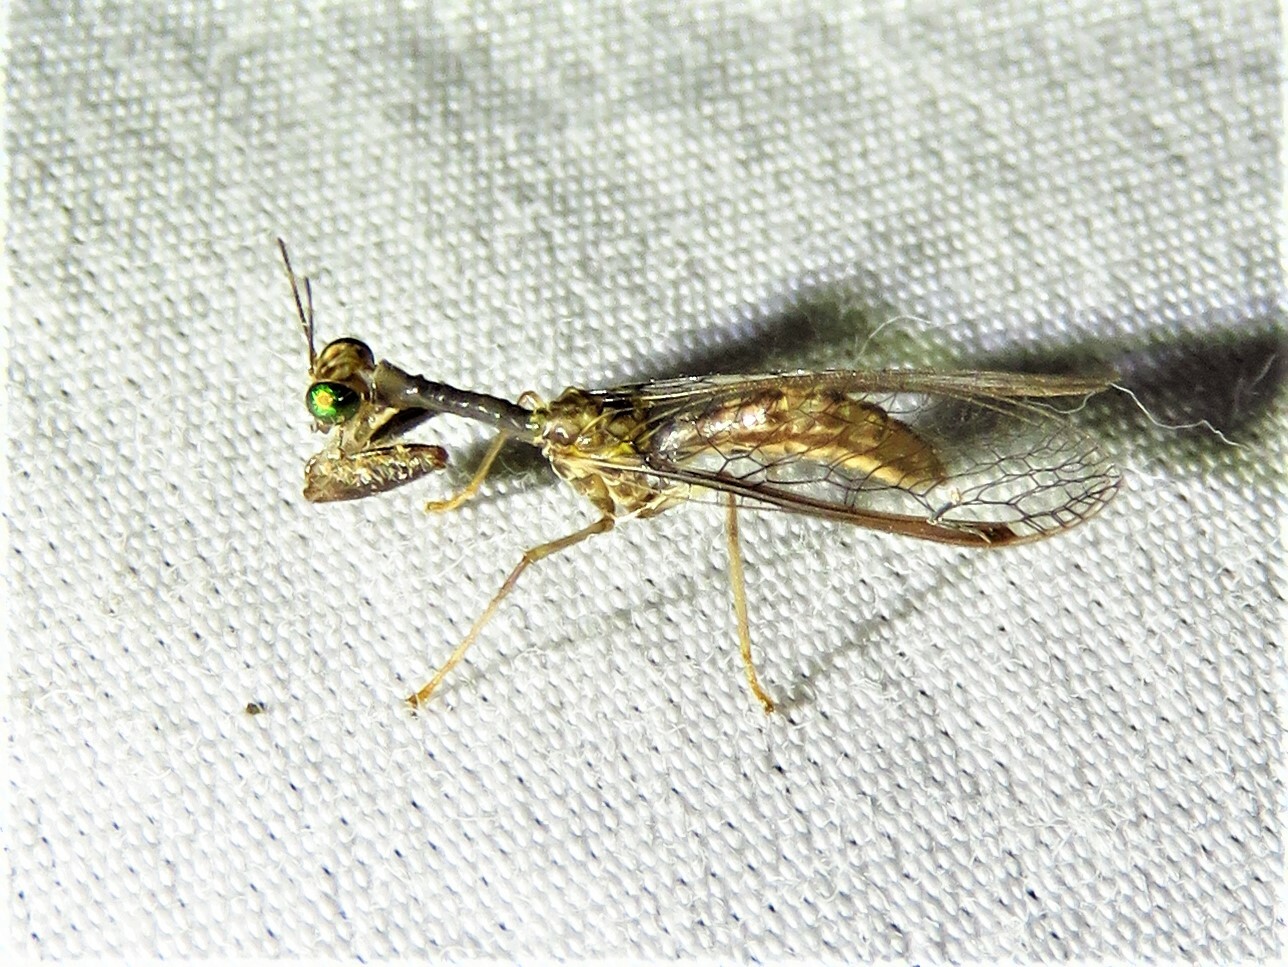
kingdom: Animalia
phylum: Arthropoda
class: Insecta
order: Neuroptera
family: Mantispidae
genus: Dicromantispa
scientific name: Dicromantispa sayi
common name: Say's mantidfly
